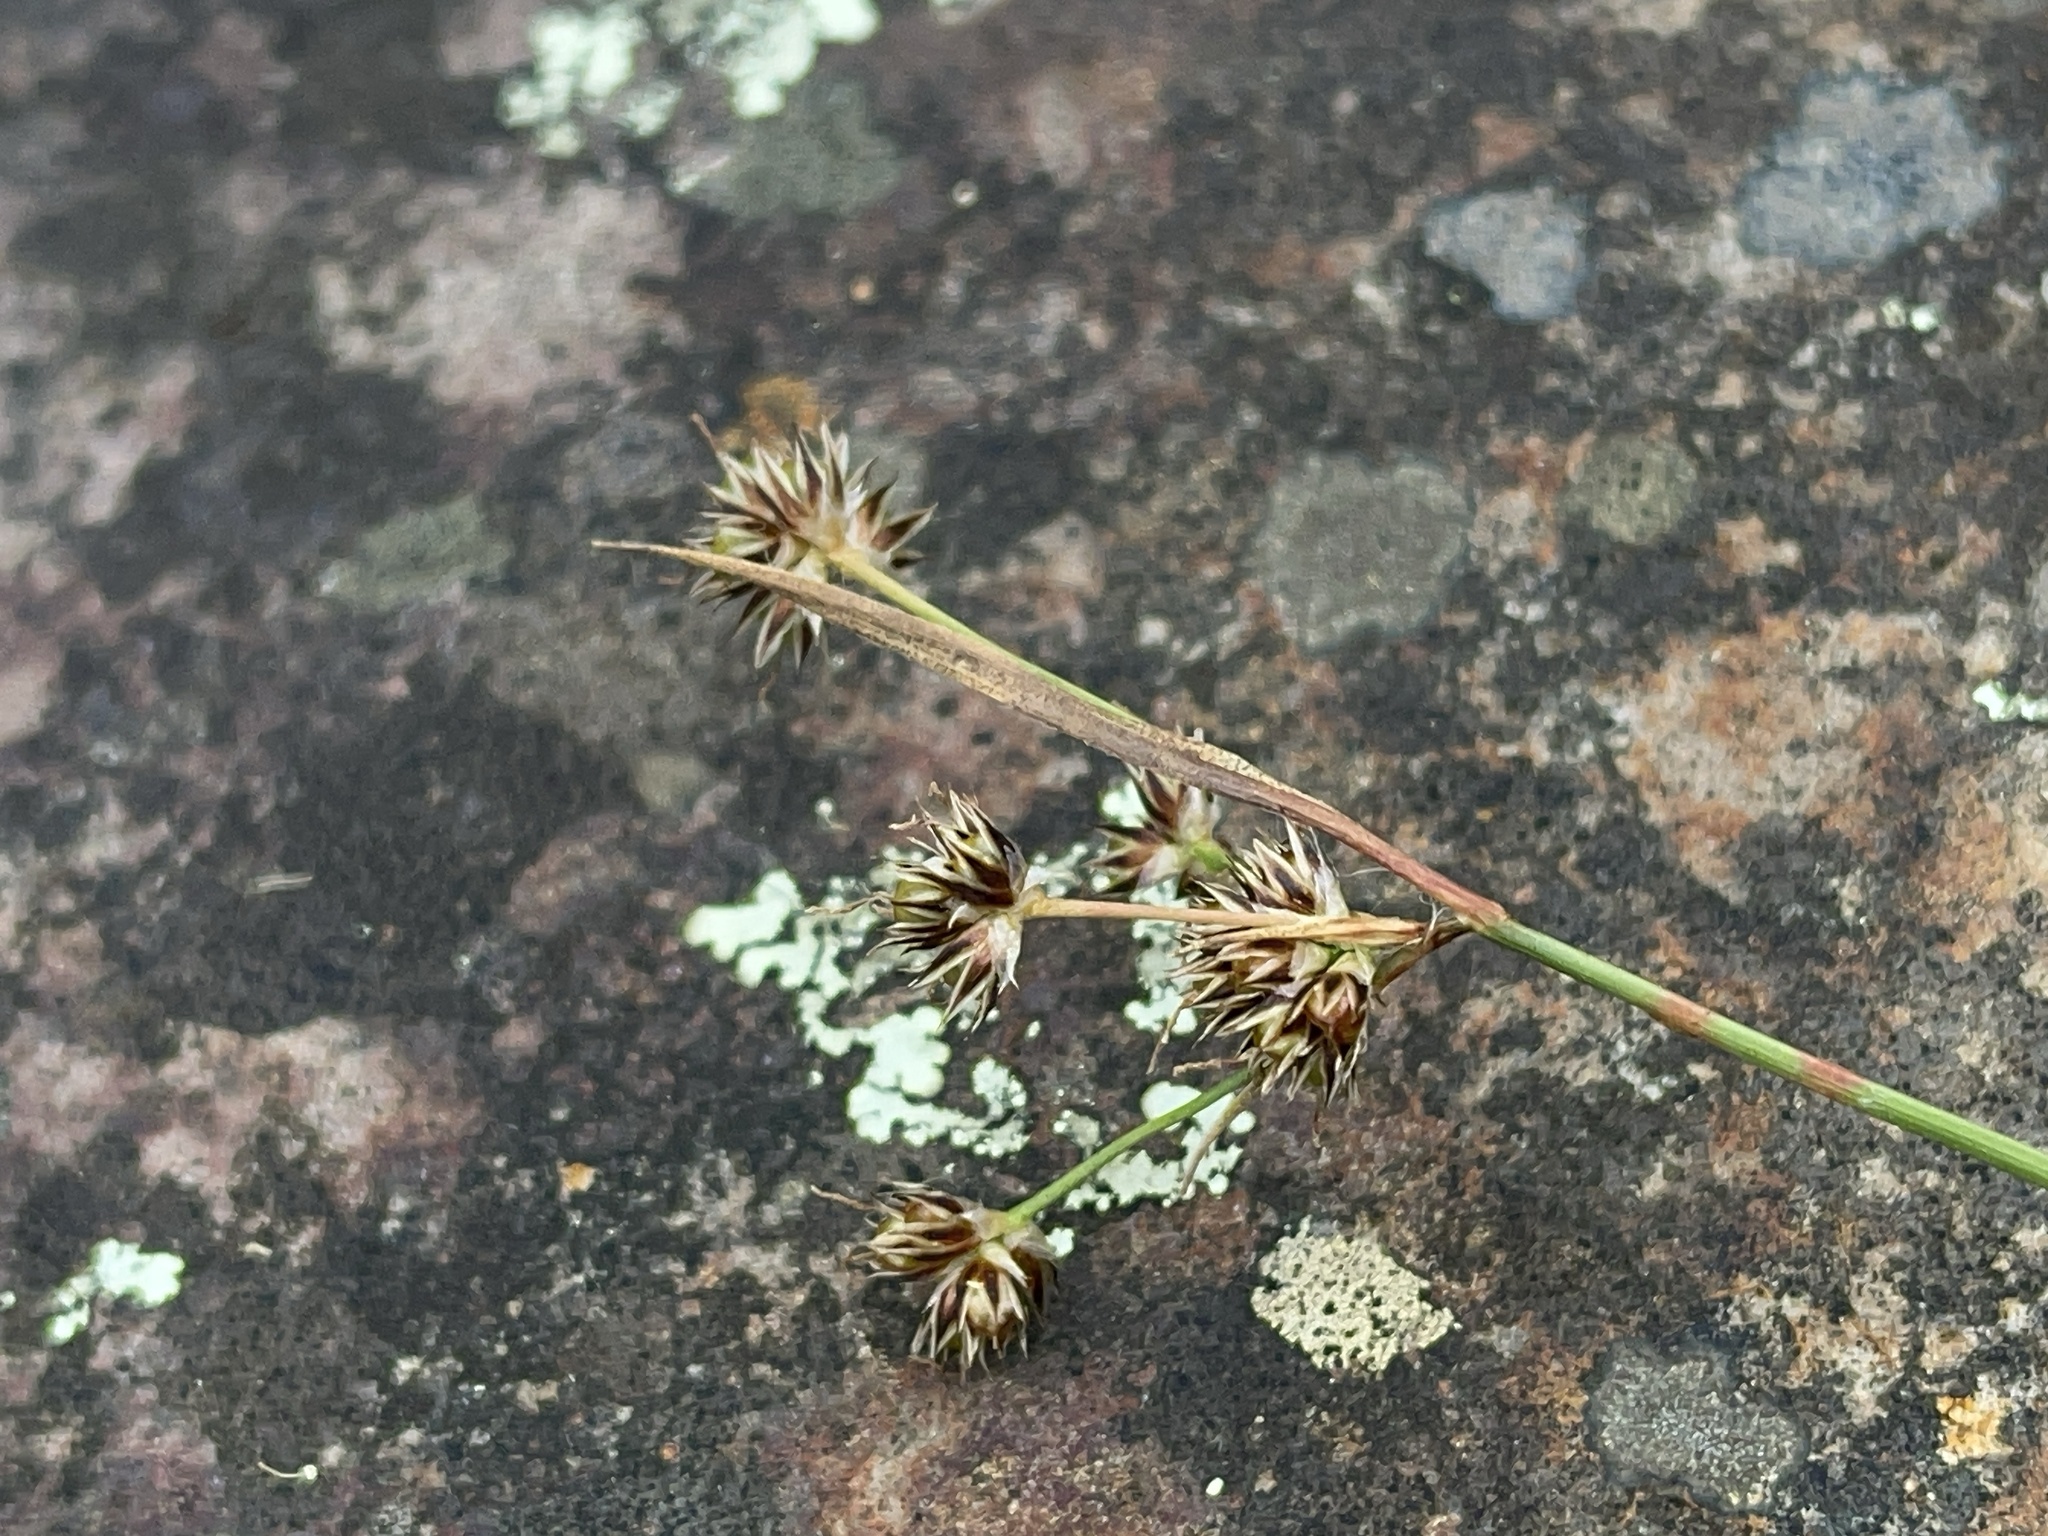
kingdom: Plantae
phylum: Tracheophyta
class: Liliopsida
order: Poales
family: Juncaceae
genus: Luzula
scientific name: Luzula meridionalis
